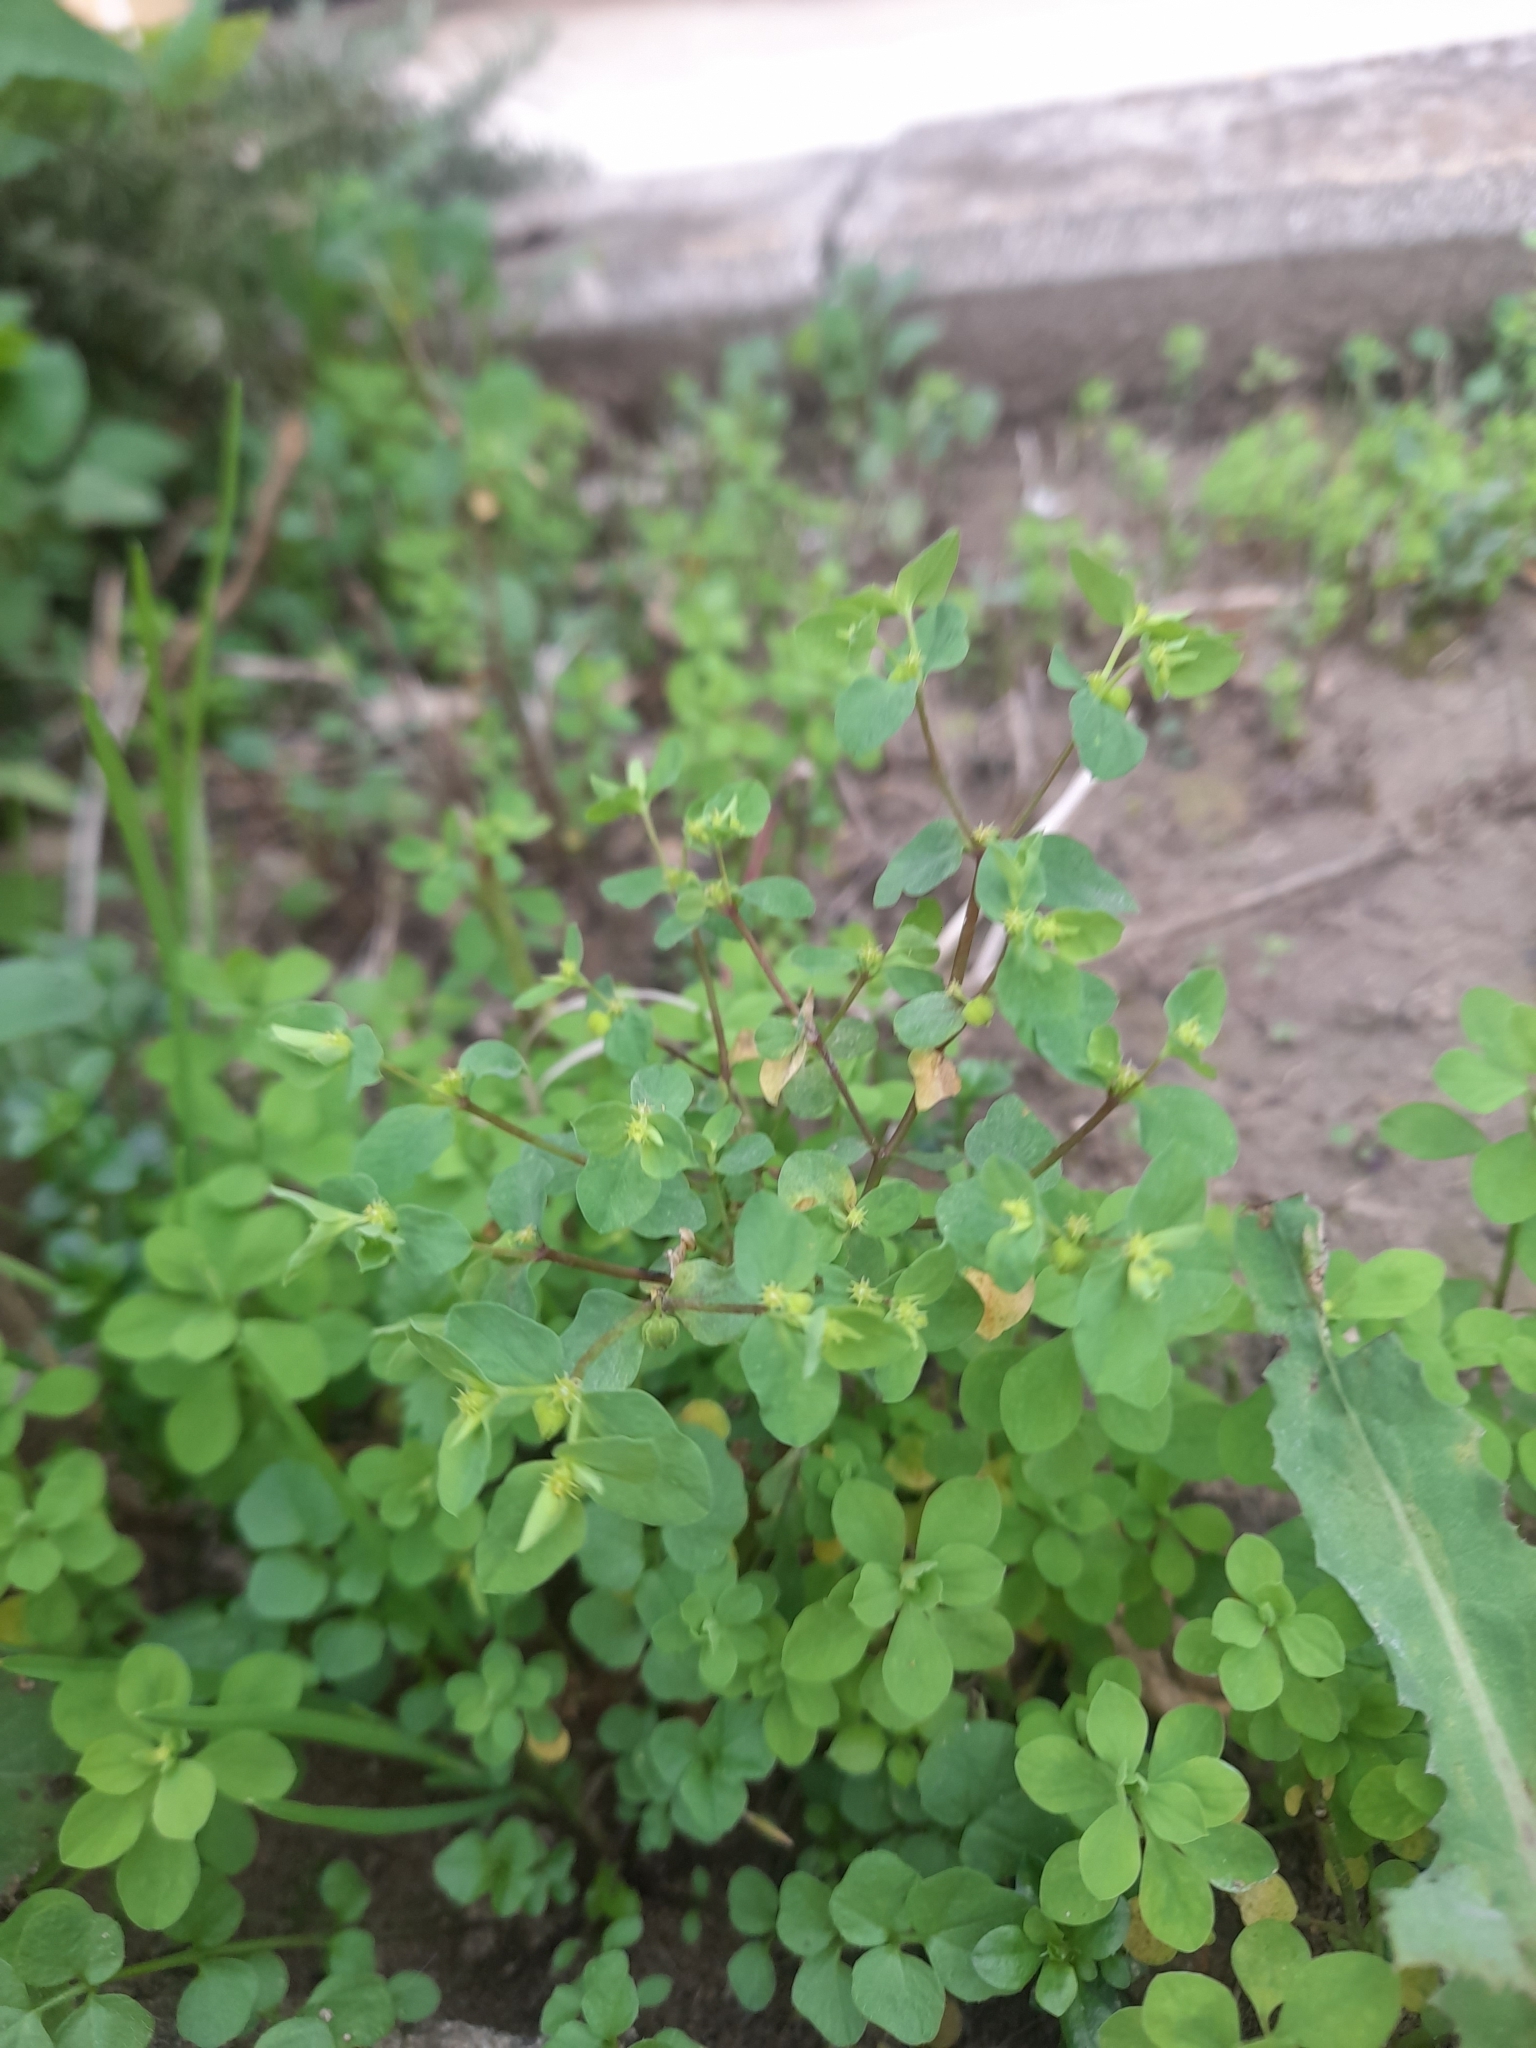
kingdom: Plantae
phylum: Tracheophyta
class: Magnoliopsida
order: Malpighiales
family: Euphorbiaceae
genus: Euphorbia
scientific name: Euphorbia peplus
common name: Petty spurge
